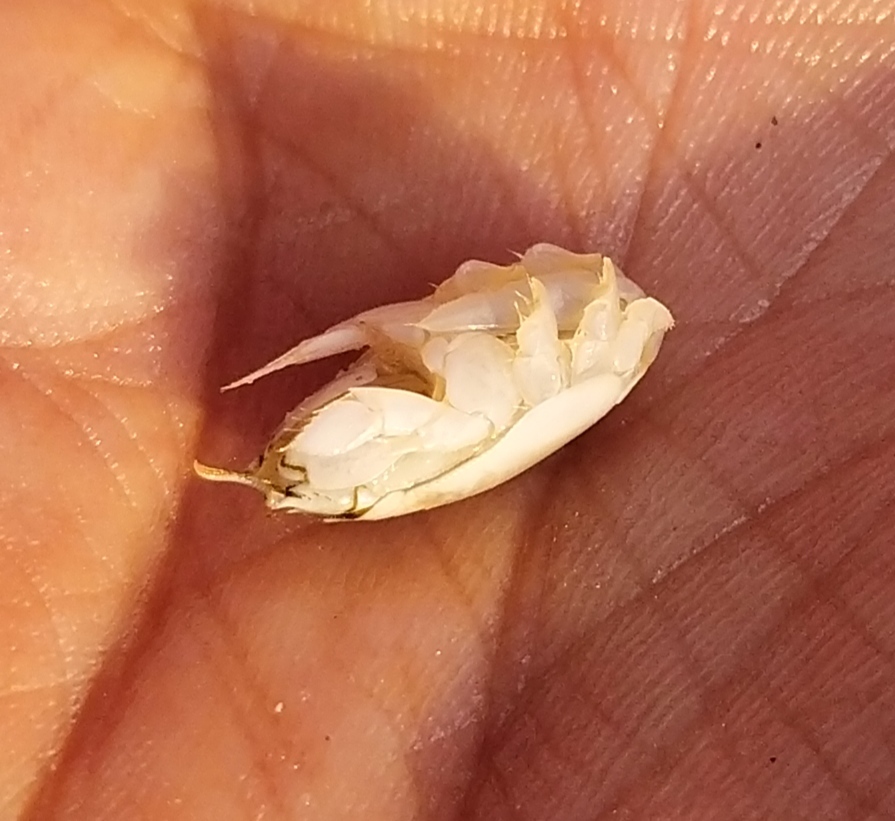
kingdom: Animalia
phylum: Arthropoda
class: Malacostraca
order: Decapoda
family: Hippidae
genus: Emerita
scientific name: Emerita emeritus
